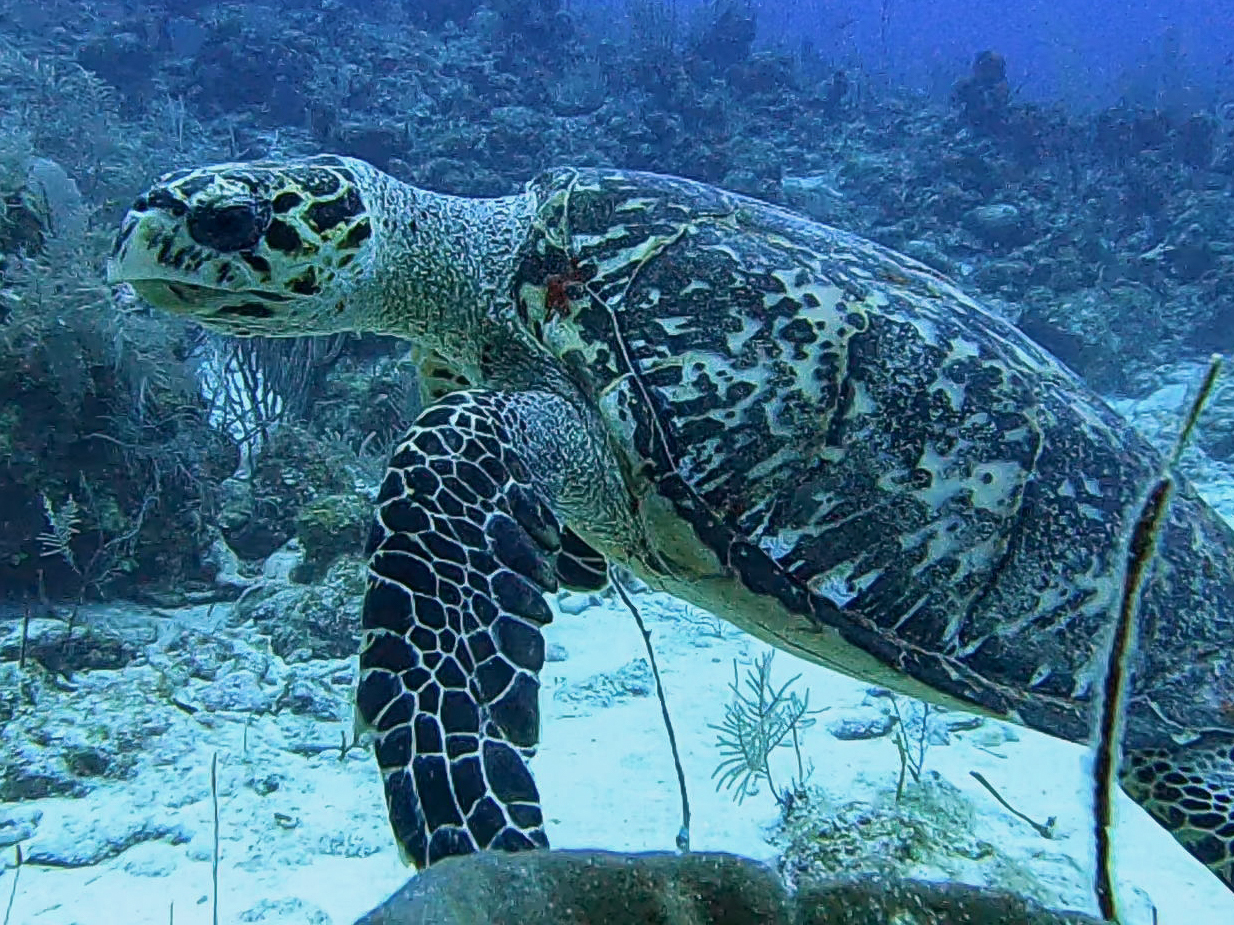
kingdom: Animalia
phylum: Chordata
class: Testudines
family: Cheloniidae
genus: Eretmochelys
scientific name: Eretmochelys imbricata
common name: Hawksbill turtle
